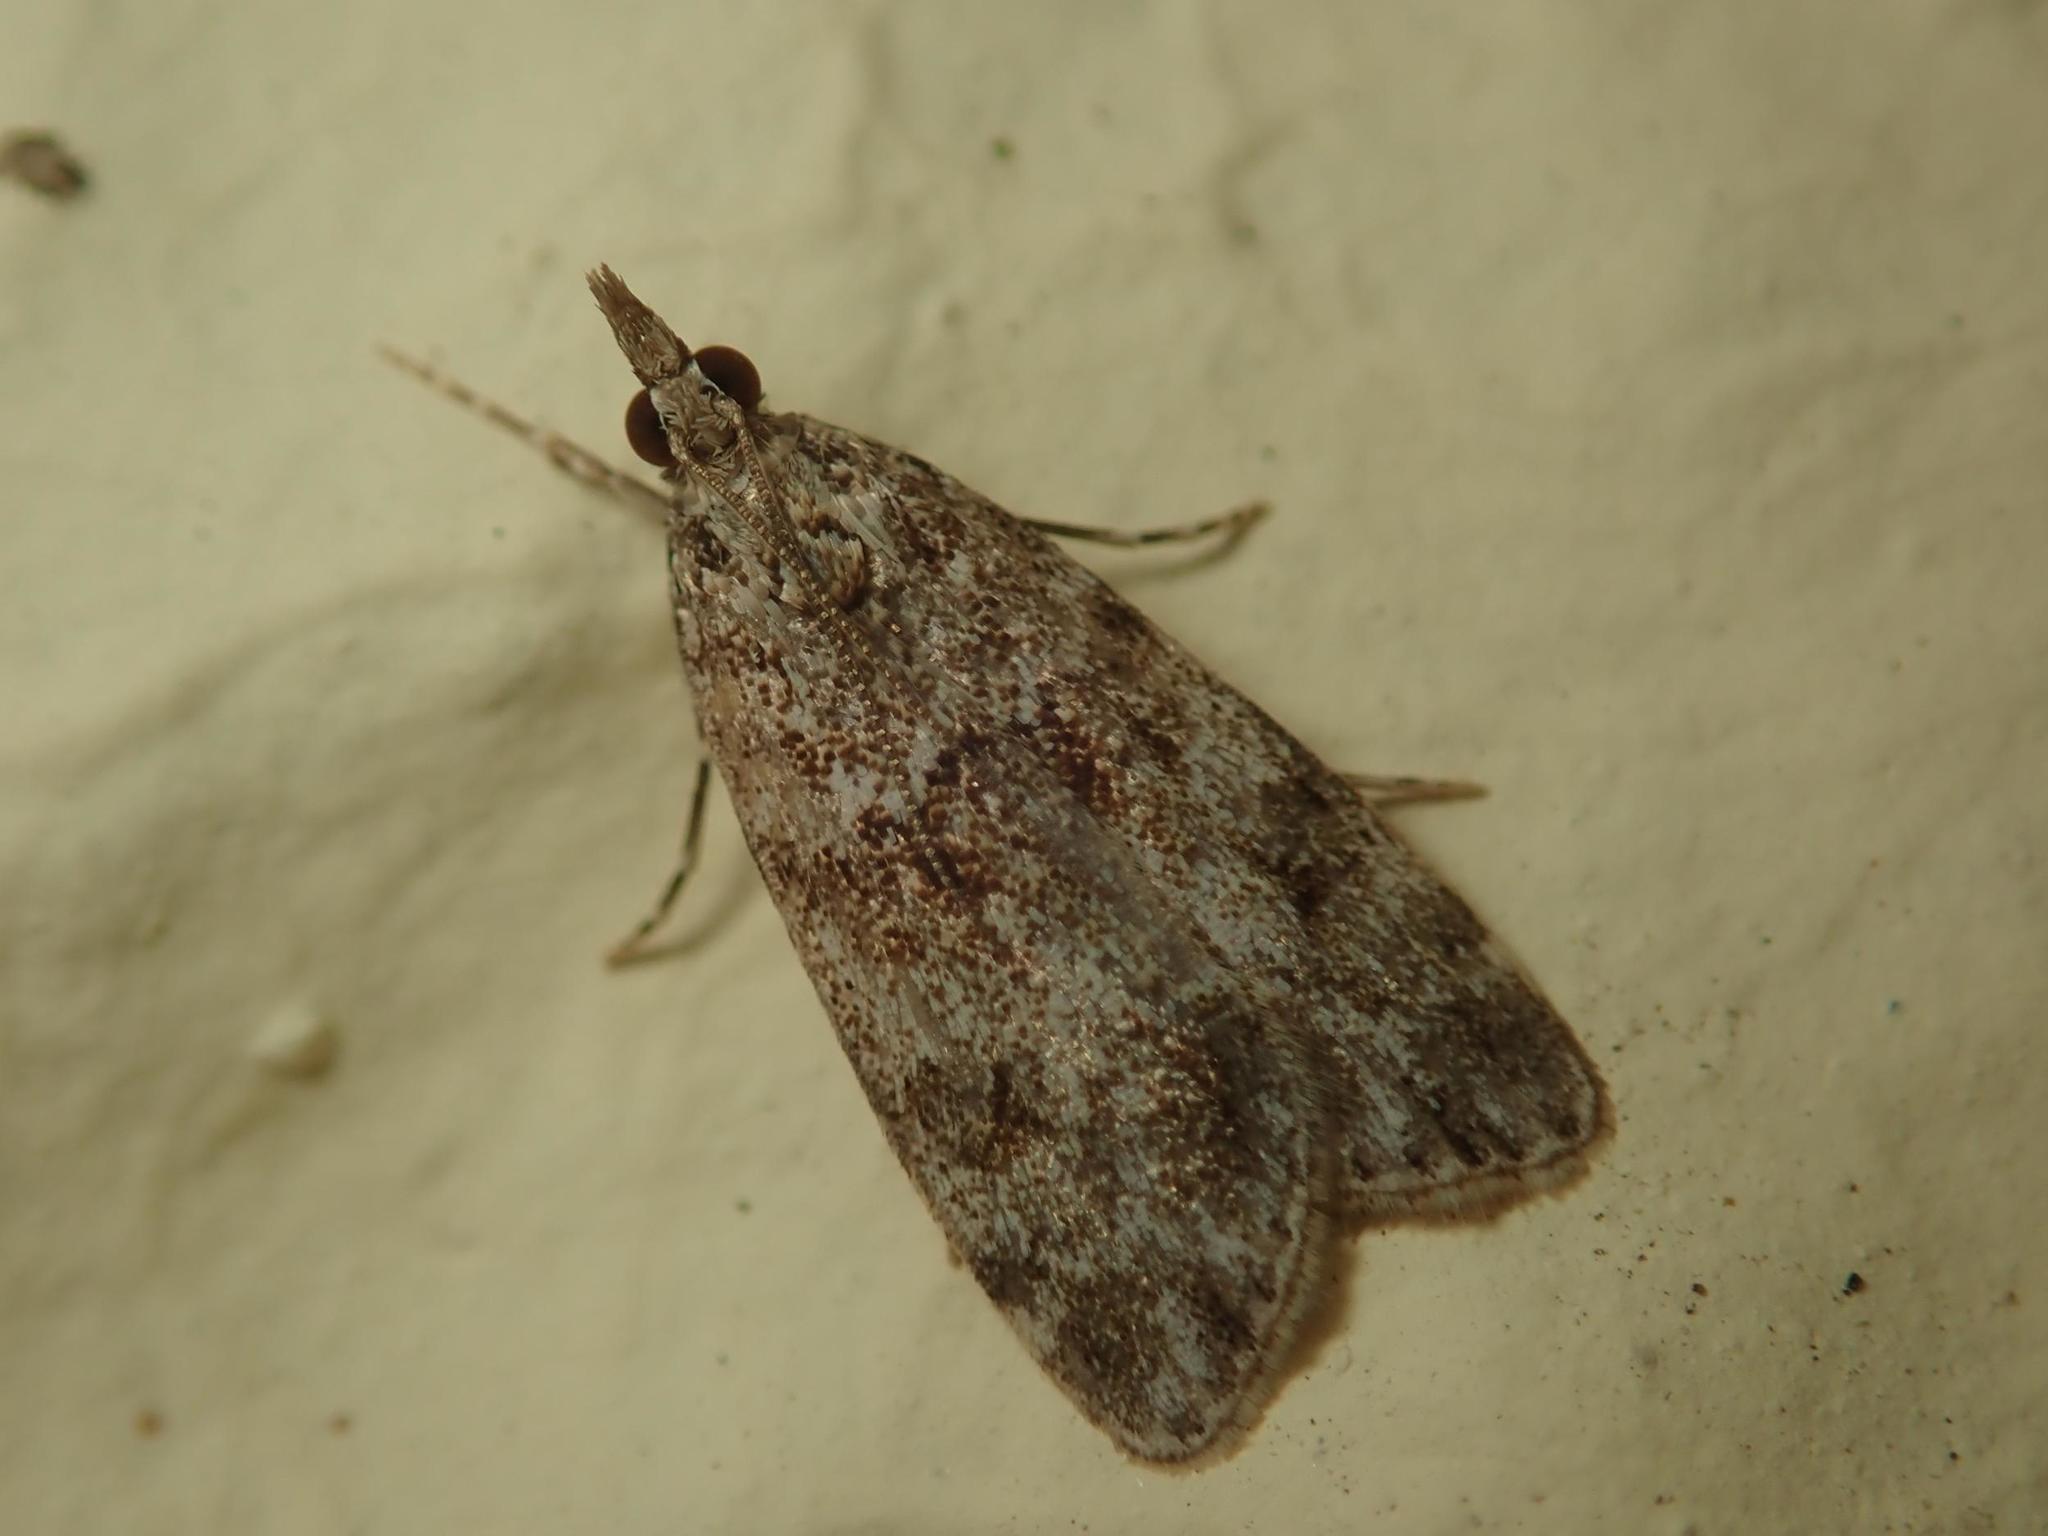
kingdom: Animalia
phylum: Arthropoda
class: Insecta
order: Lepidoptera
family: Crambidae
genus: Eudonia
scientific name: Eudonia mercurella
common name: Small grey
